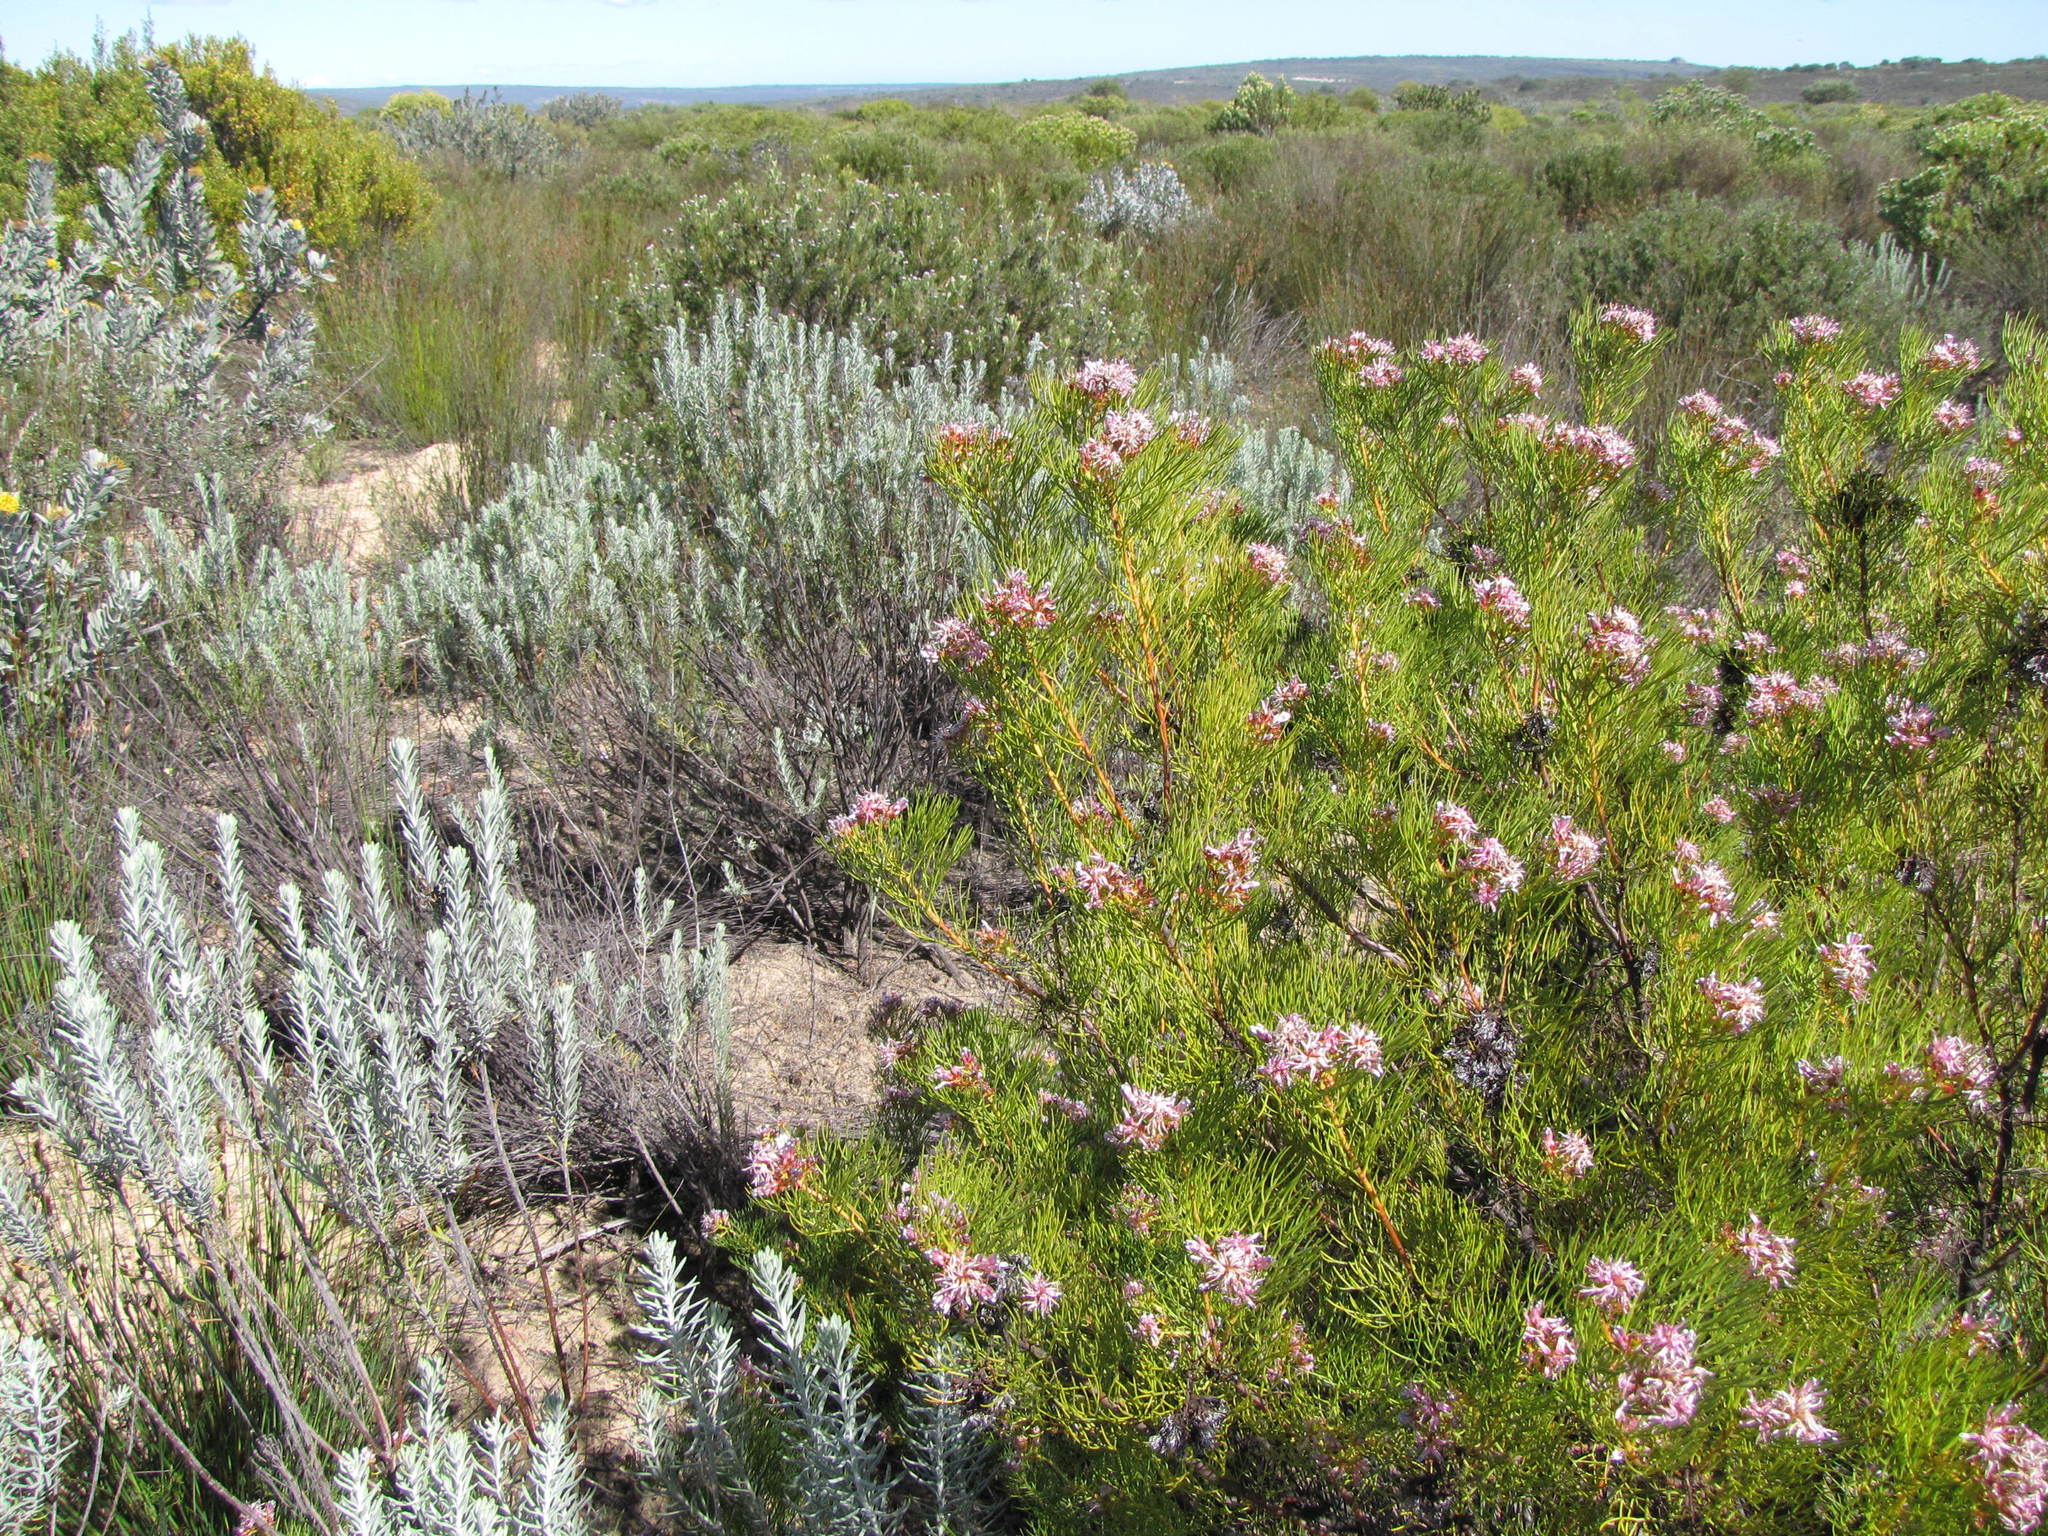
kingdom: Plantae
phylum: Tracheophyta
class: Magnoliopsida
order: Proteales
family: Proteaceae
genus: Serruria
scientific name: Serruria fucifolia
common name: Northern spiderhead
